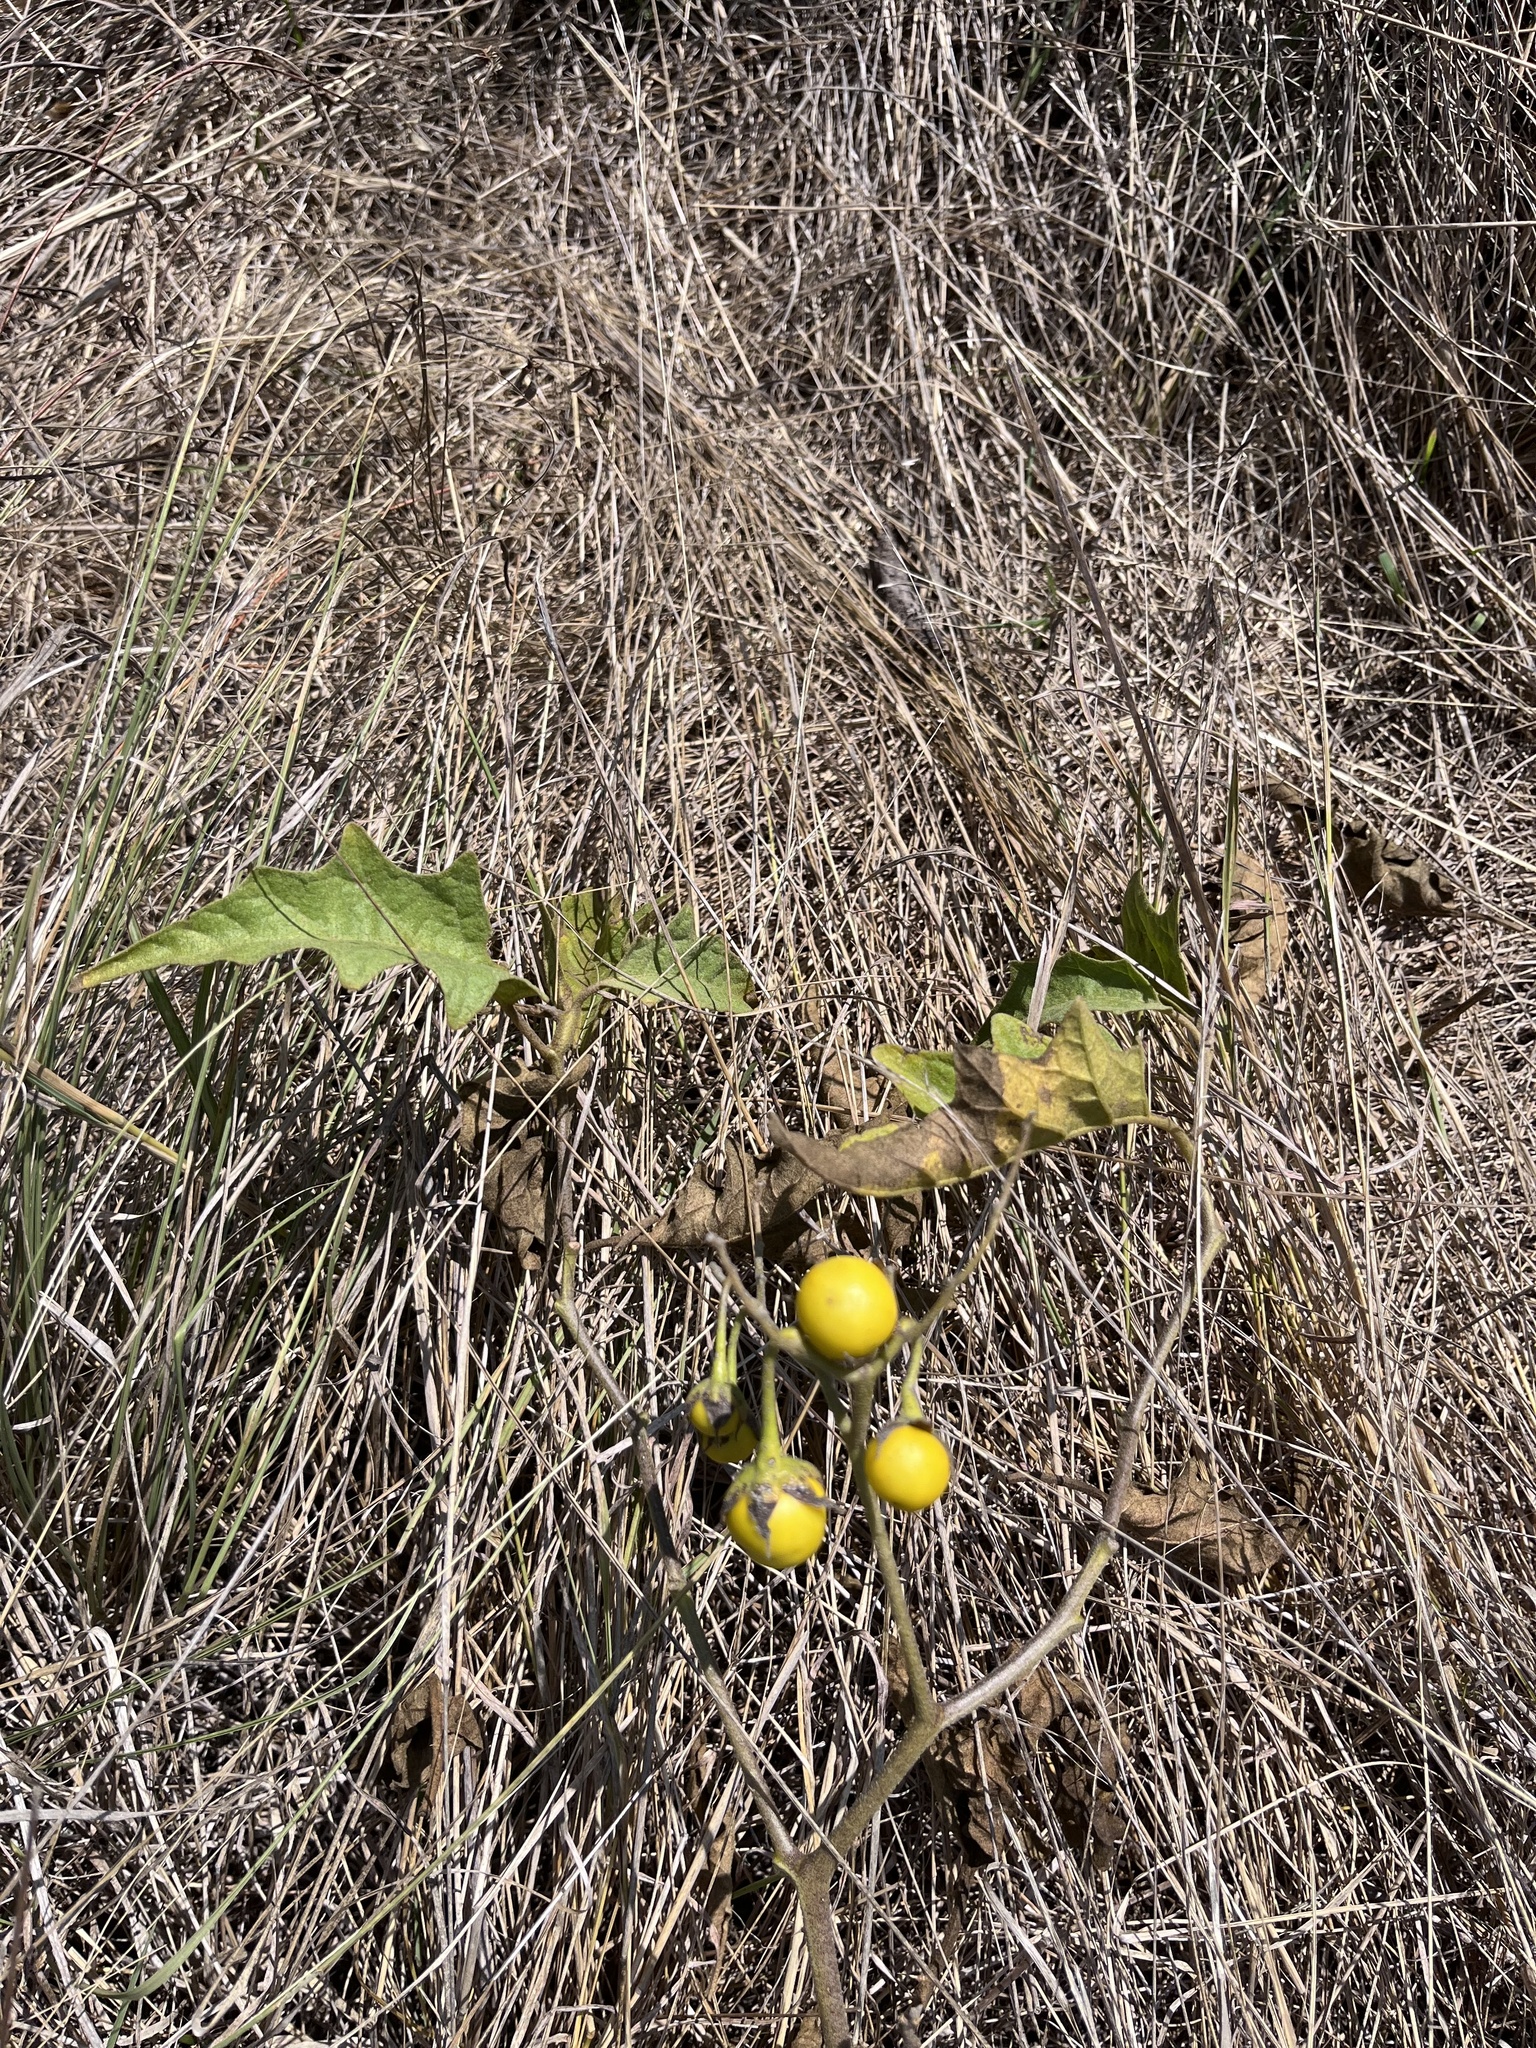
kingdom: Plantae
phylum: Tracheophyta
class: Magnoliopsida
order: Solanales
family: Solanaceae
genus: Solanum
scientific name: Solanum dimidiatum
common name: Carolina horse-nettle
